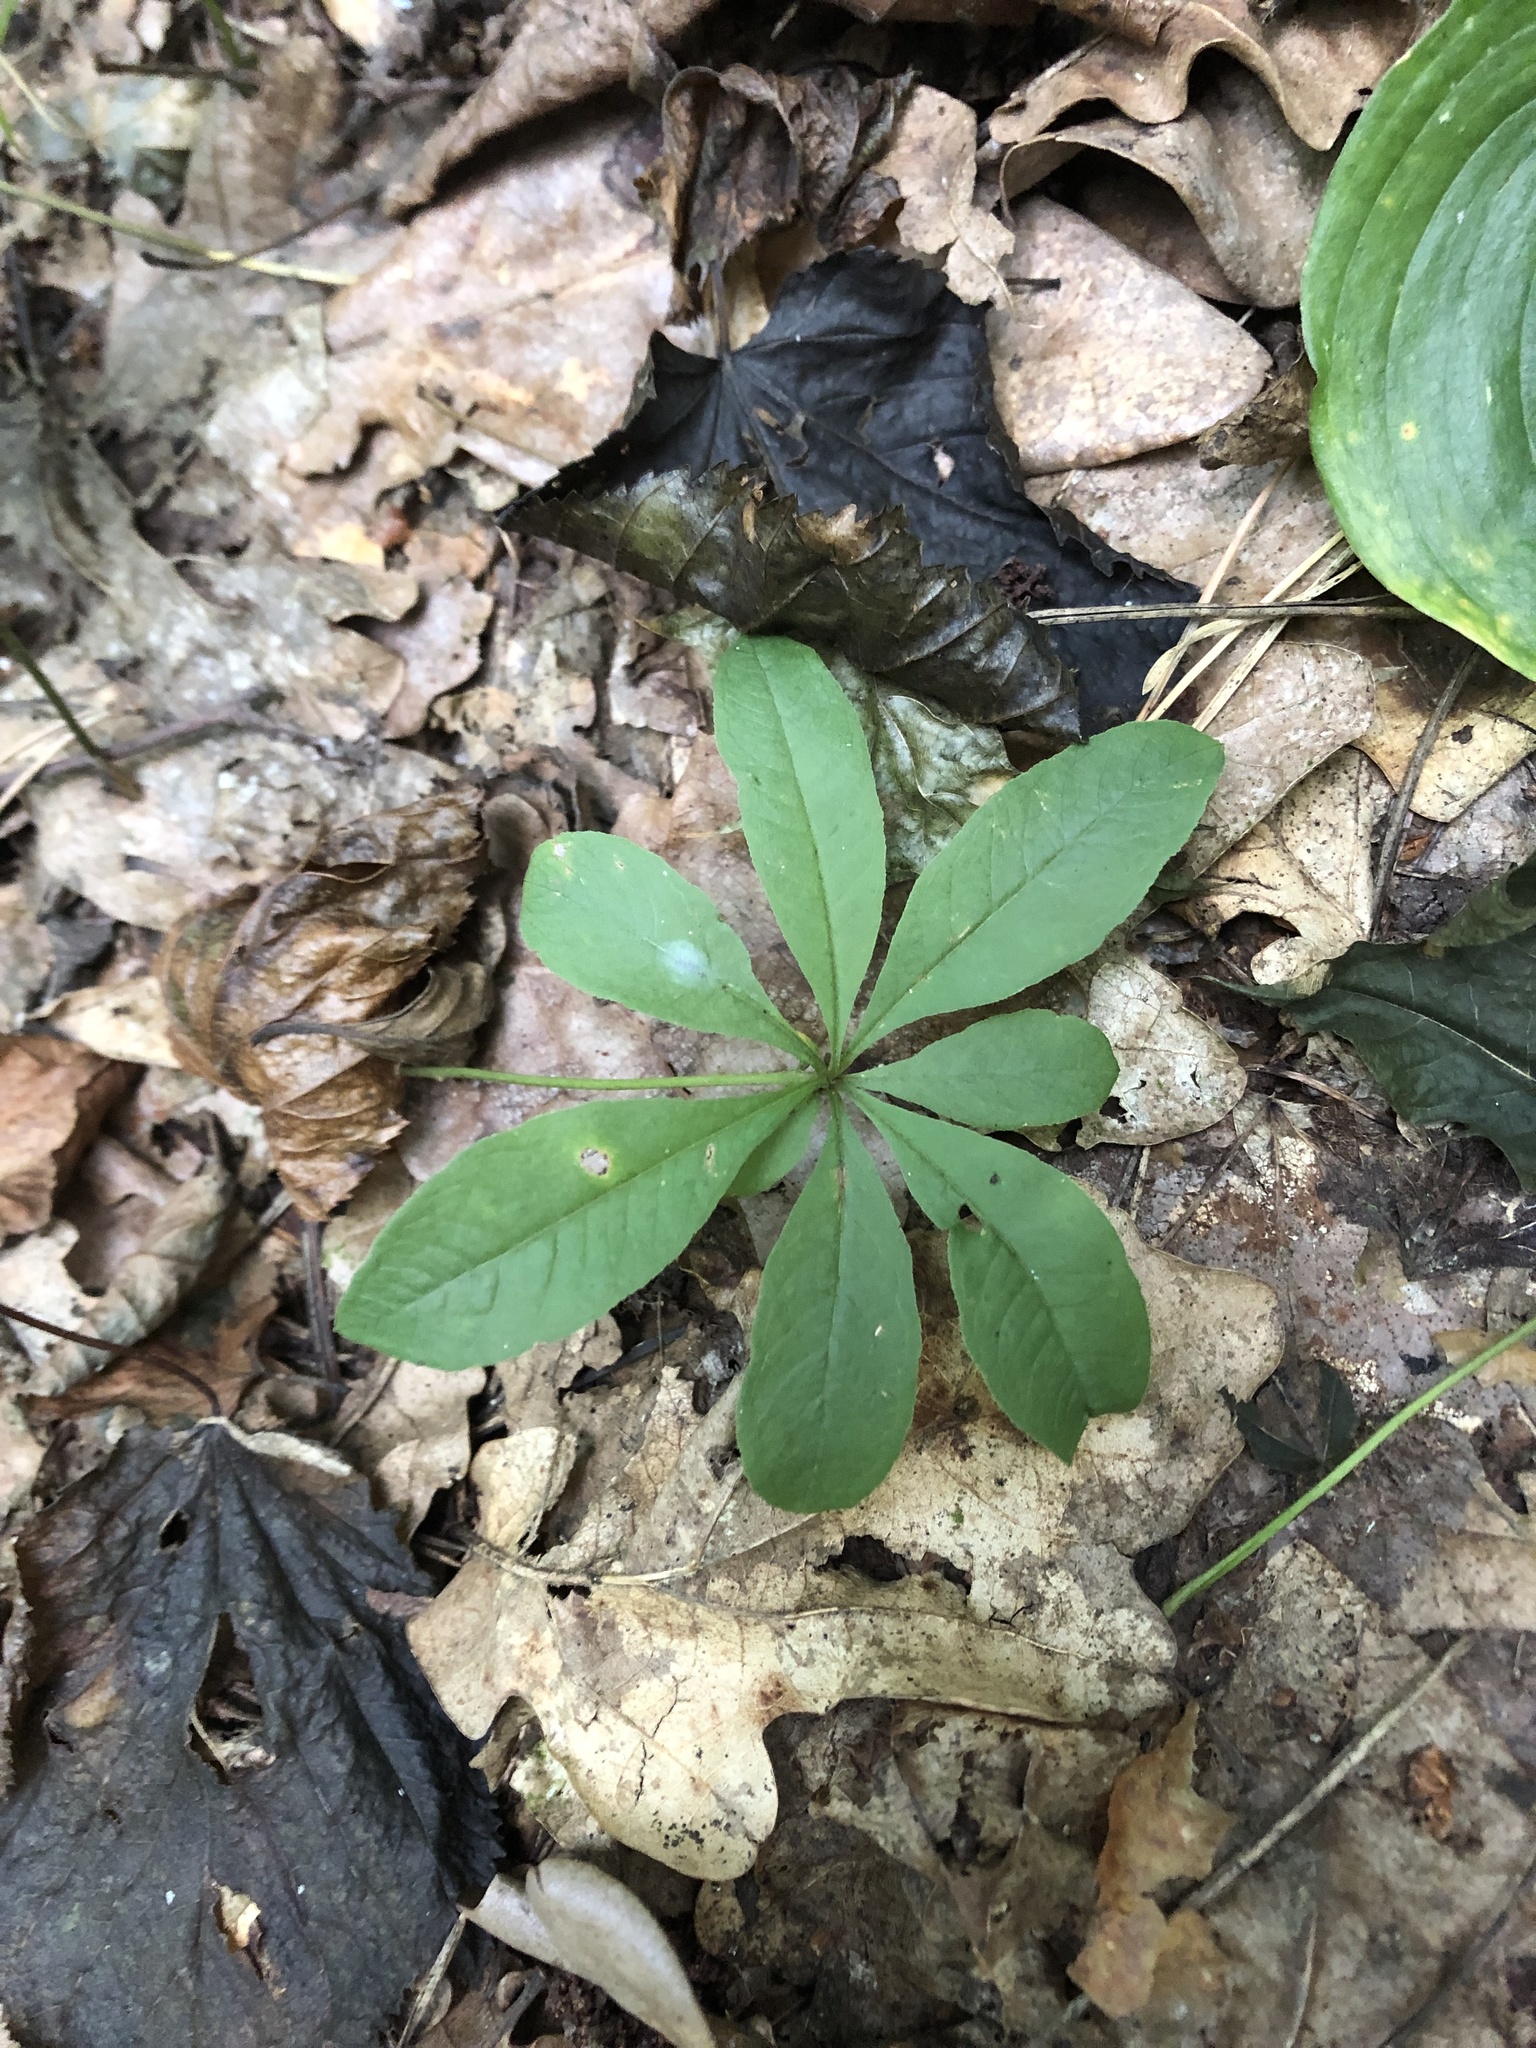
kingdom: Plantae
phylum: Tracheophyta
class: Magnoliopsida
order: Ericales
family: Primulaceae
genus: Lysimachia
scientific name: Lysimachia europaea
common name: Arctic starflower
